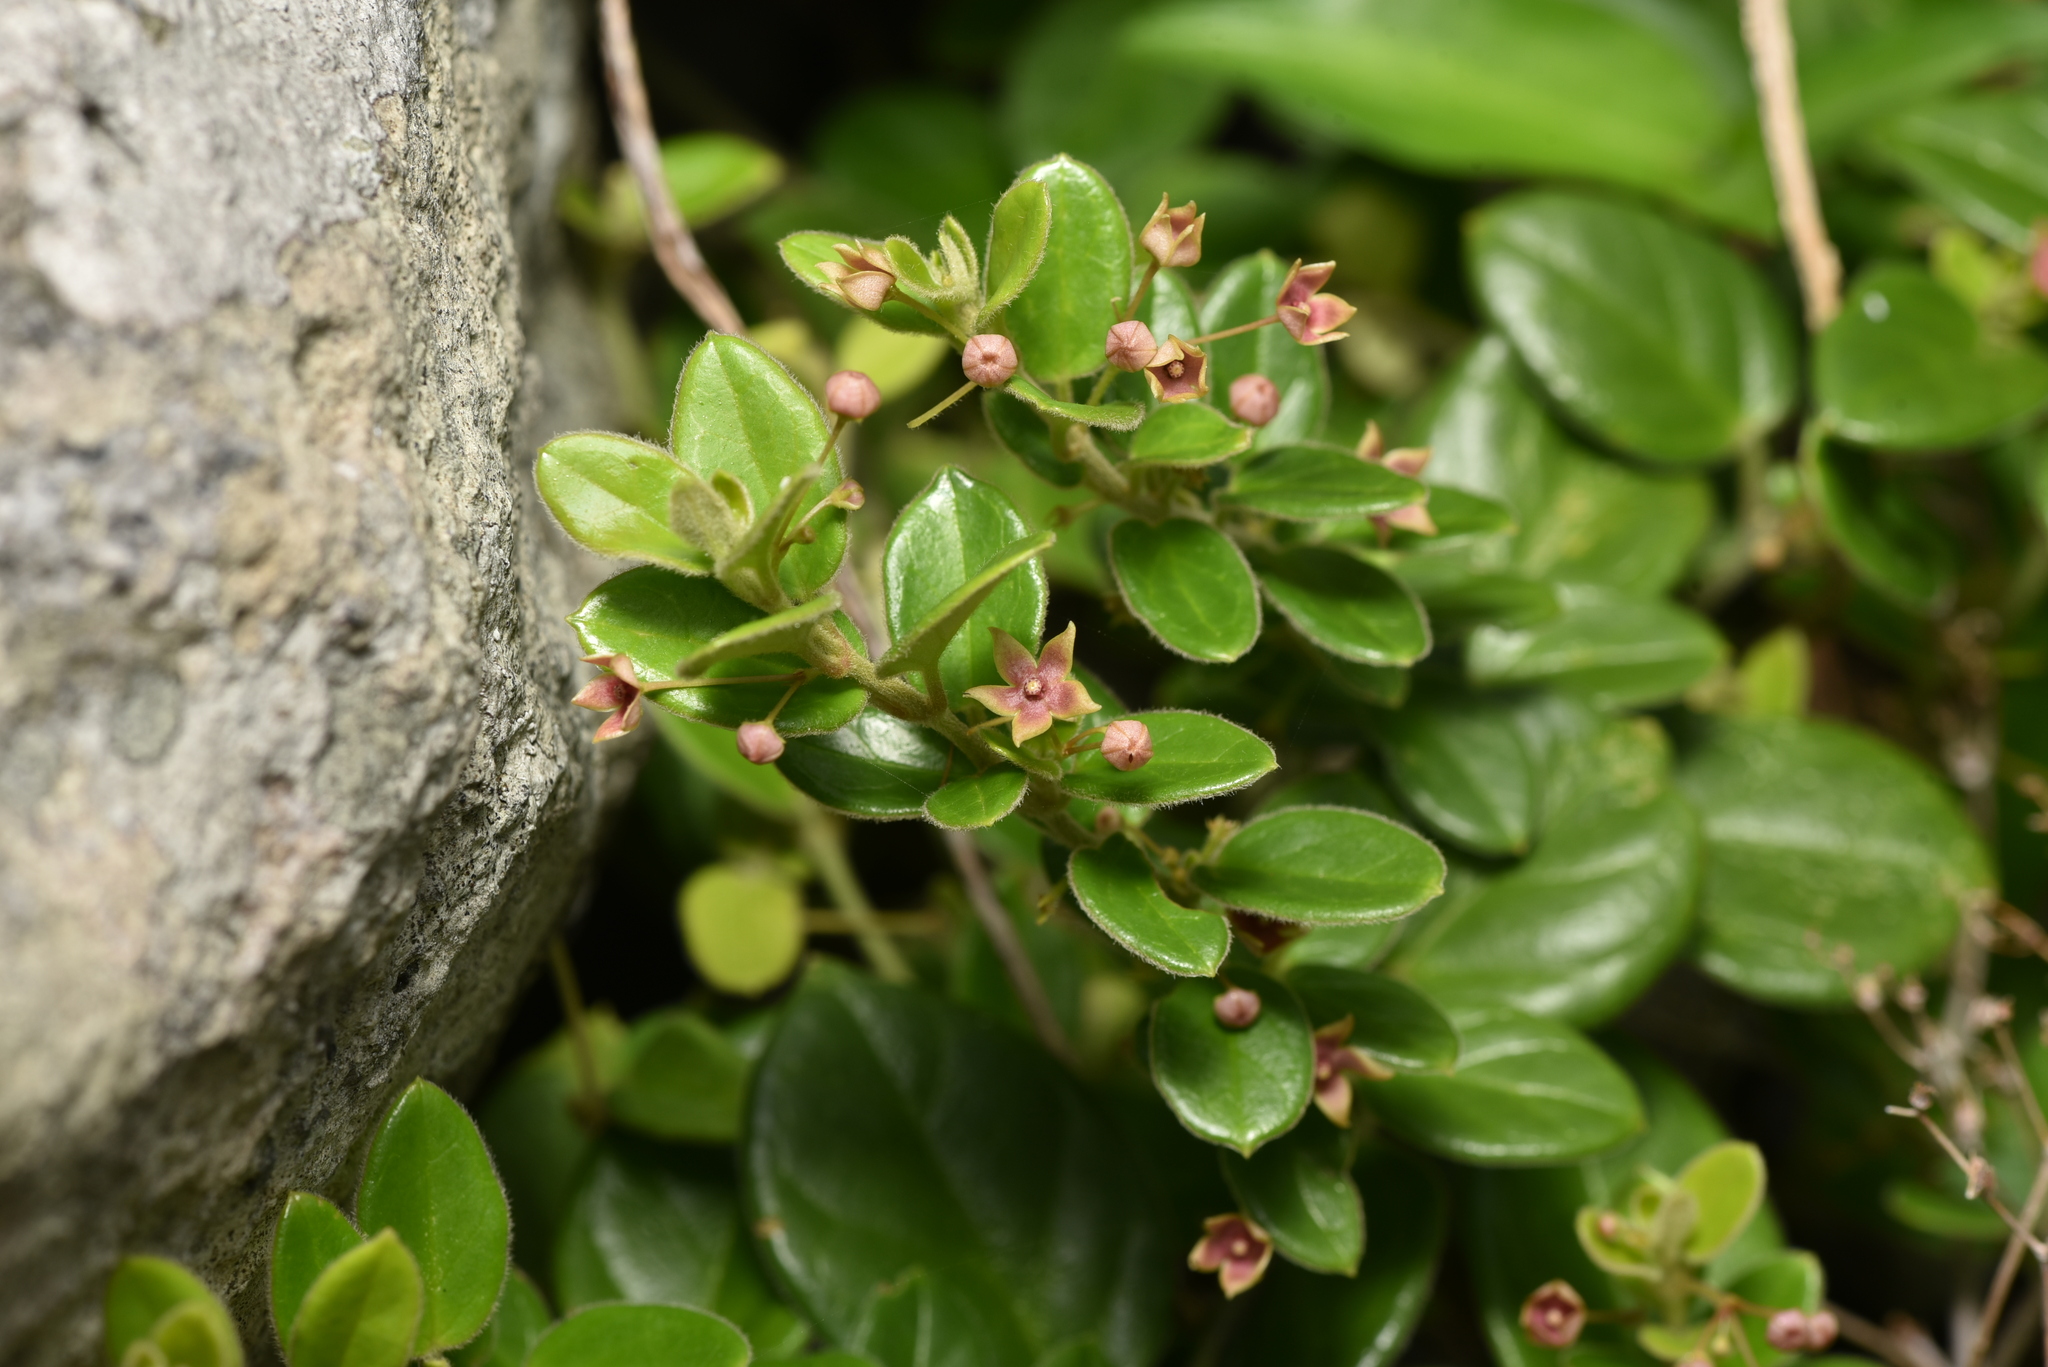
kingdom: Plantae
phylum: Tracheophyta
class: Magnoliopsida
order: Gentianales
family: Apocynaceae
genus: Vincetoxicum
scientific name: Vincetoxicum hirsutum
